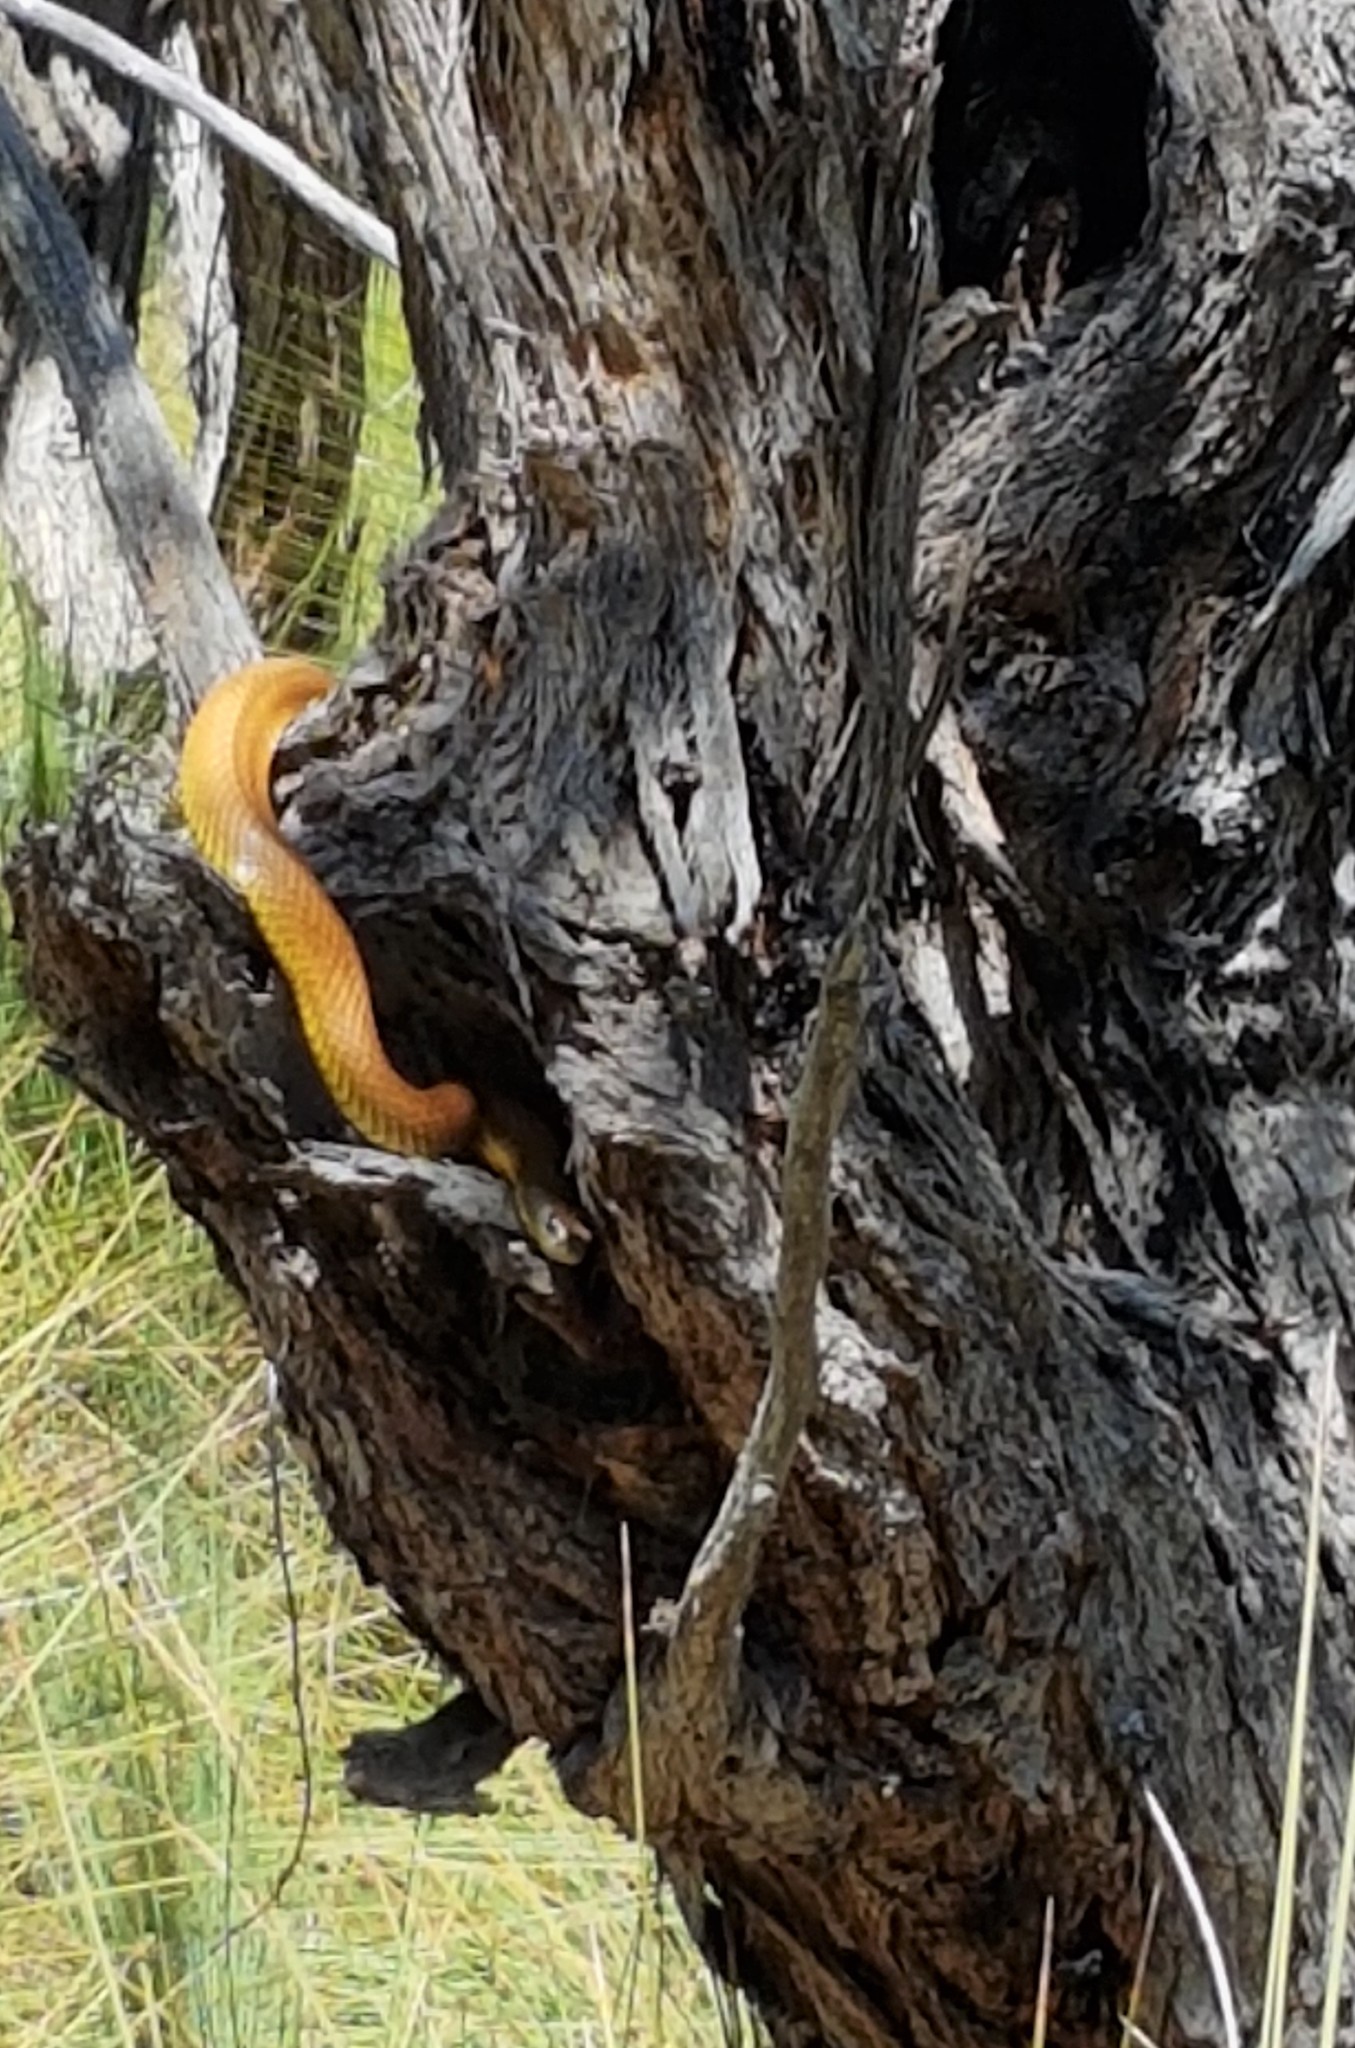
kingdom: Animalia
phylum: Chordata
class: Squamata
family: Elapidae
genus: Notechis
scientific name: Notechis scutatus
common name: Mainland tiger snake
